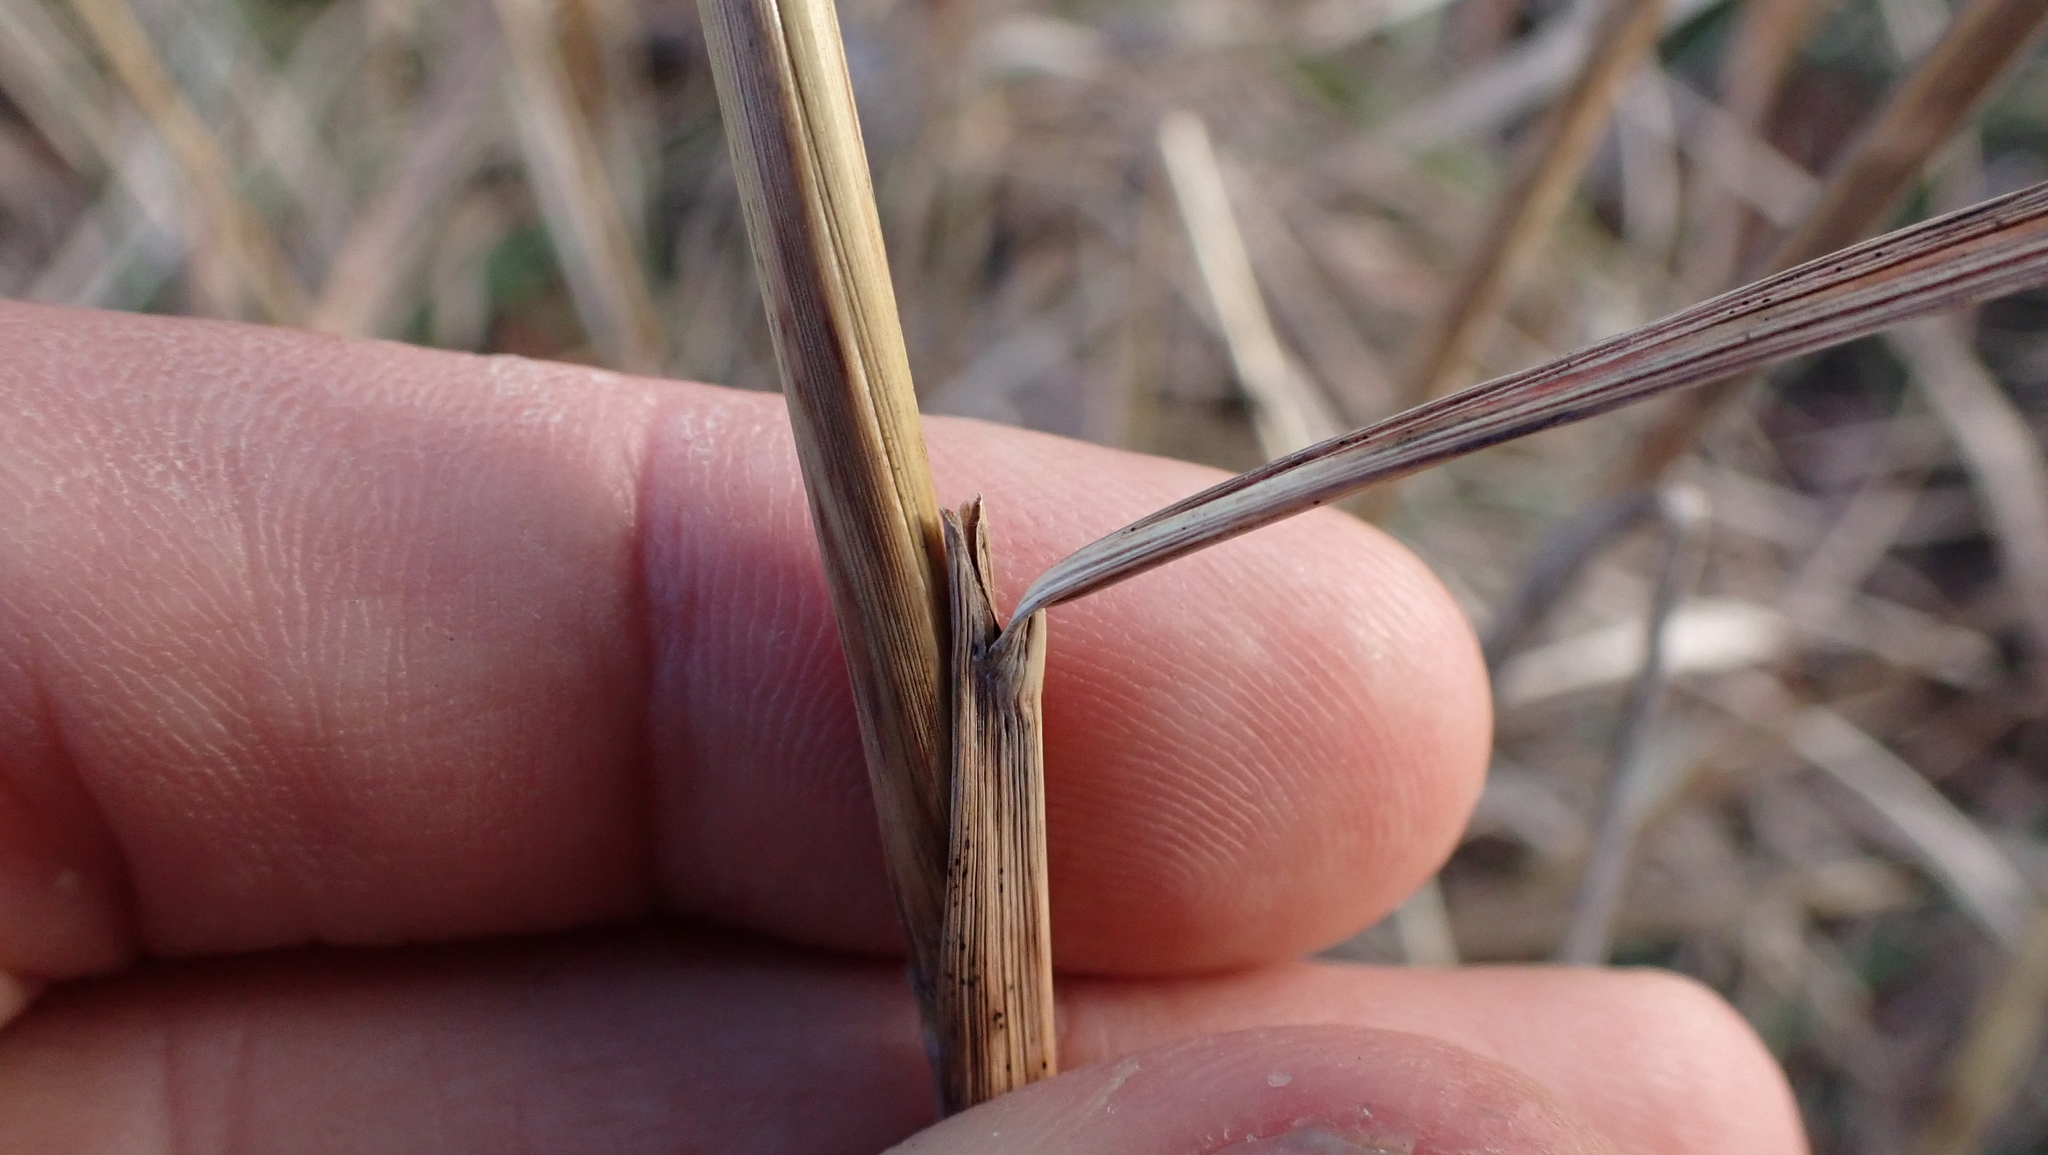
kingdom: Plantae
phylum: Tracheophyta
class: Liliopsida
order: Poales
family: Poaceae
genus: Sorghastrum
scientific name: Sorghastrum nutans
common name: Indian grass
